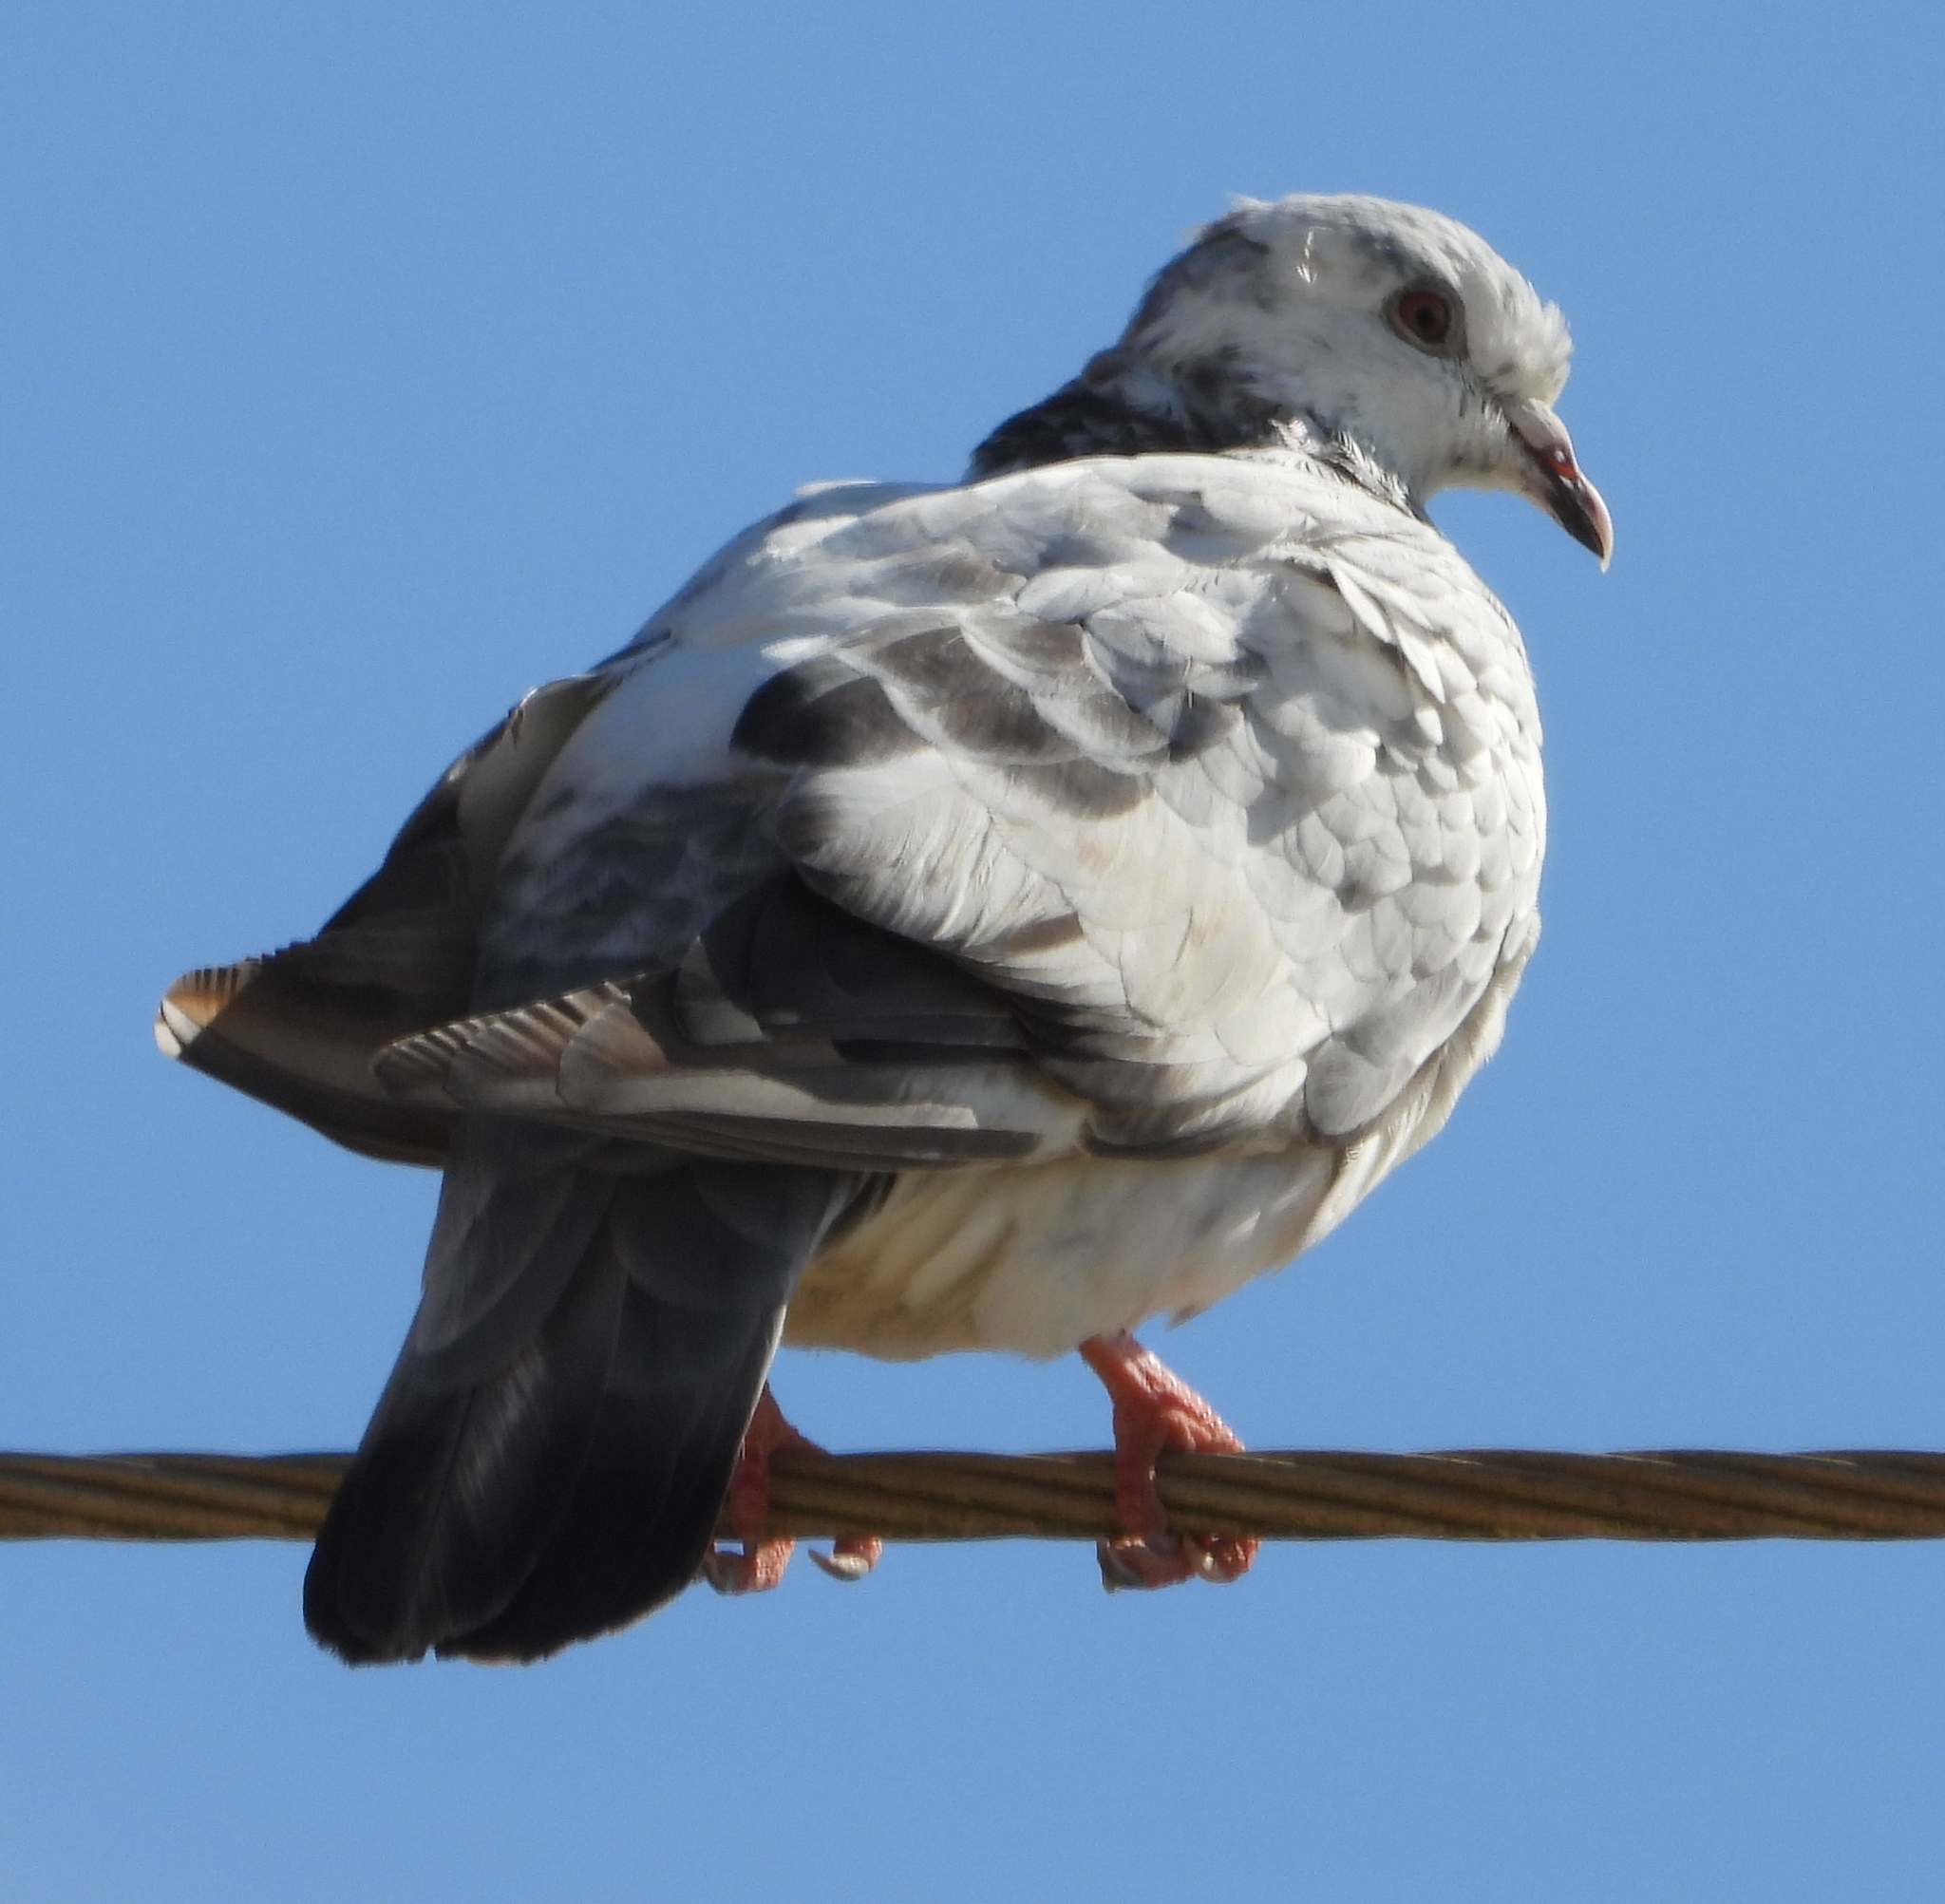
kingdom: Animalia
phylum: Chordata
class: Aves
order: Columbiformes
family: Columbidae
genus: Columba
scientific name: Columba livia
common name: Rock pigeon
